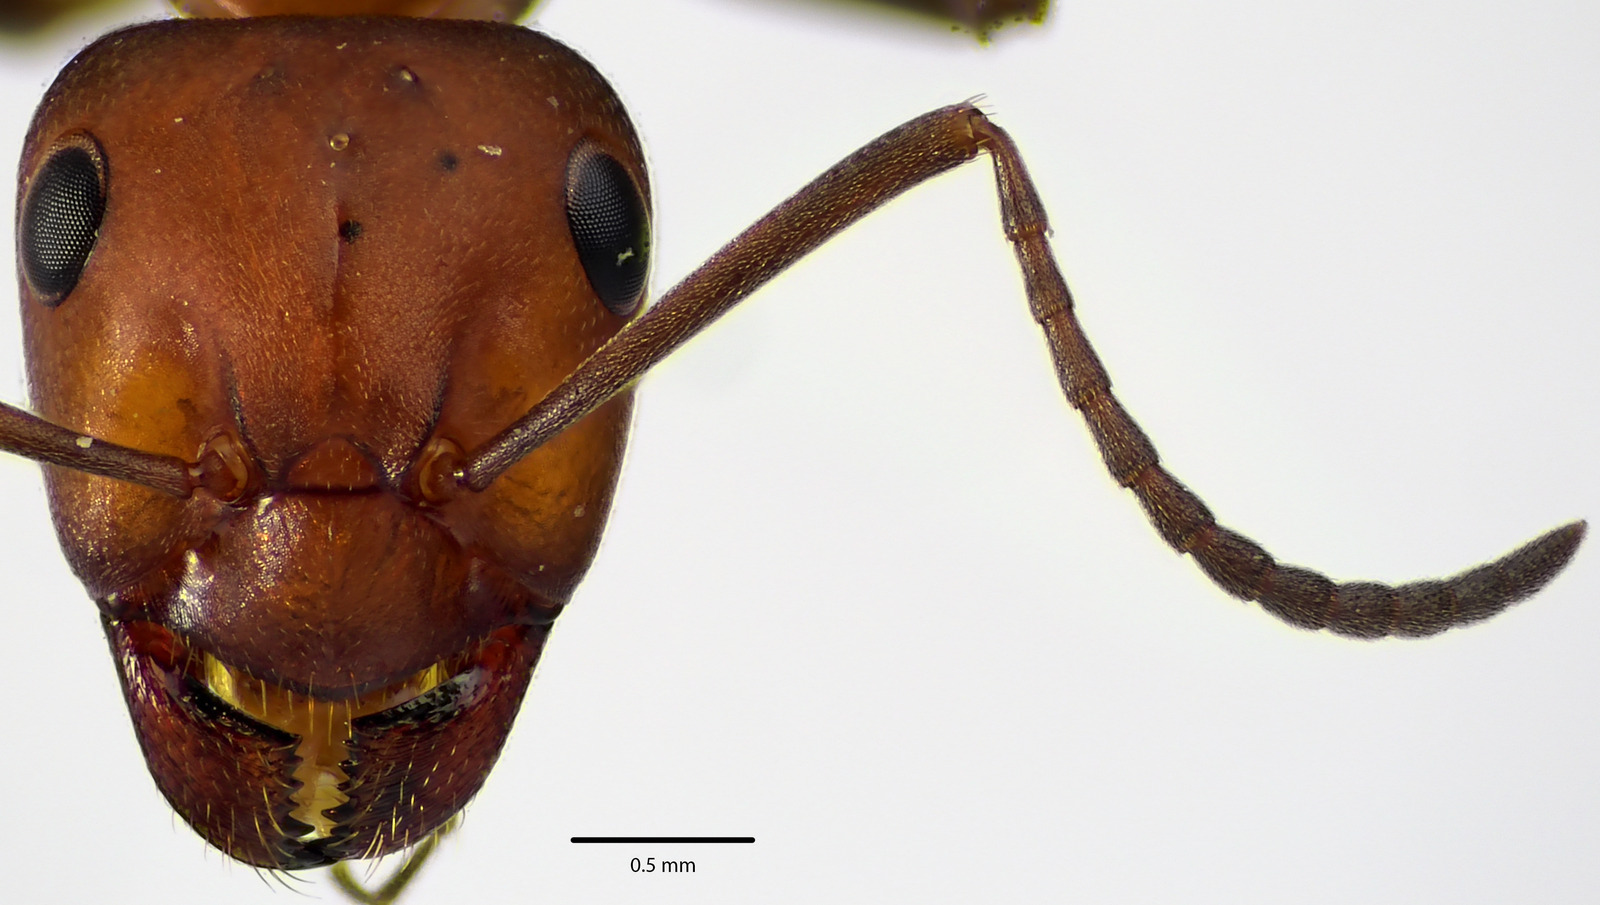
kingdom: Animalia
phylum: Arthropoda
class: Insecta
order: Hymenoptera
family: Formicidae
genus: Formica
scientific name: Formica integra
